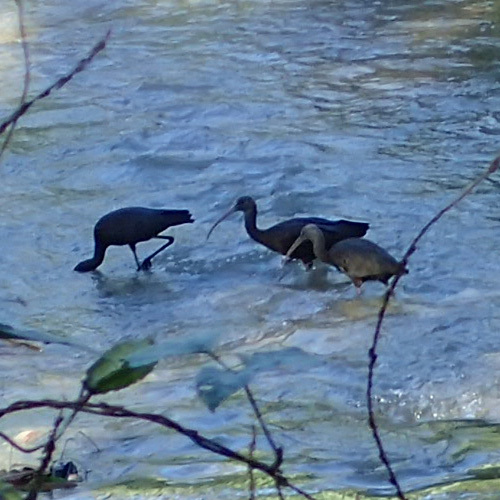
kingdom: Animalia
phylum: Chordata
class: Aves
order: Pelecaniformes
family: Threskiornithidae
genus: Plegadis
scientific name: Plegadis falcinellus
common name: Glossy ibis
